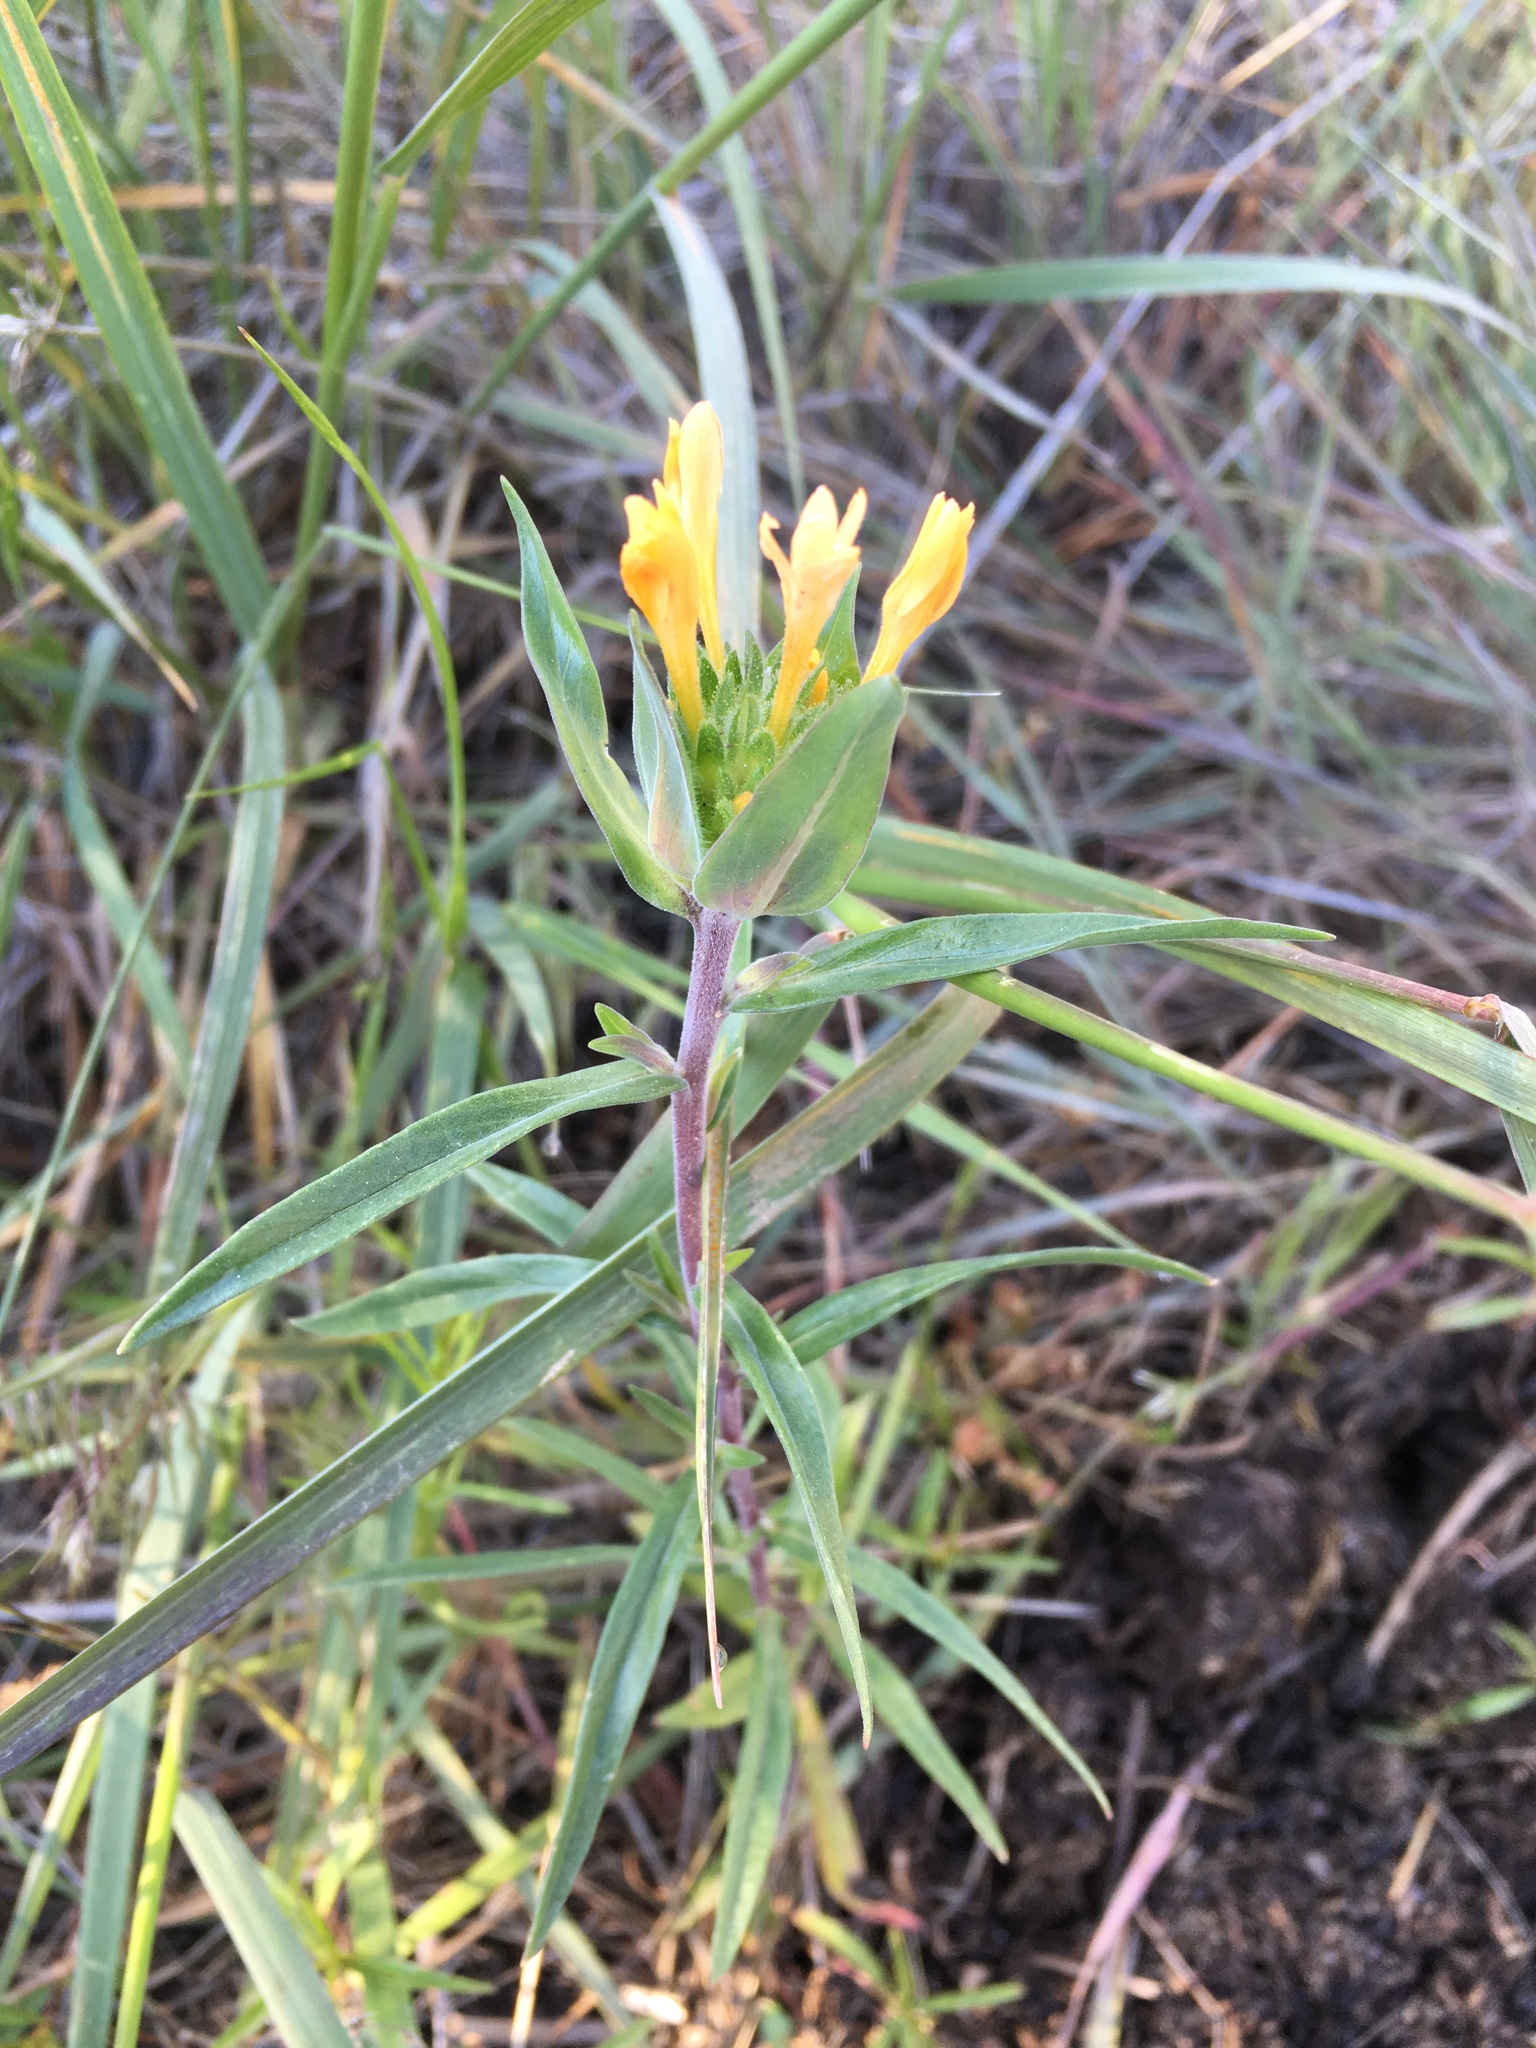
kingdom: Plantae
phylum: Tracheophyta
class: Magnoliopsida
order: Ericales
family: Polemoniaceae
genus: Collomia
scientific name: Collomia grandiflora
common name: California strawflower
